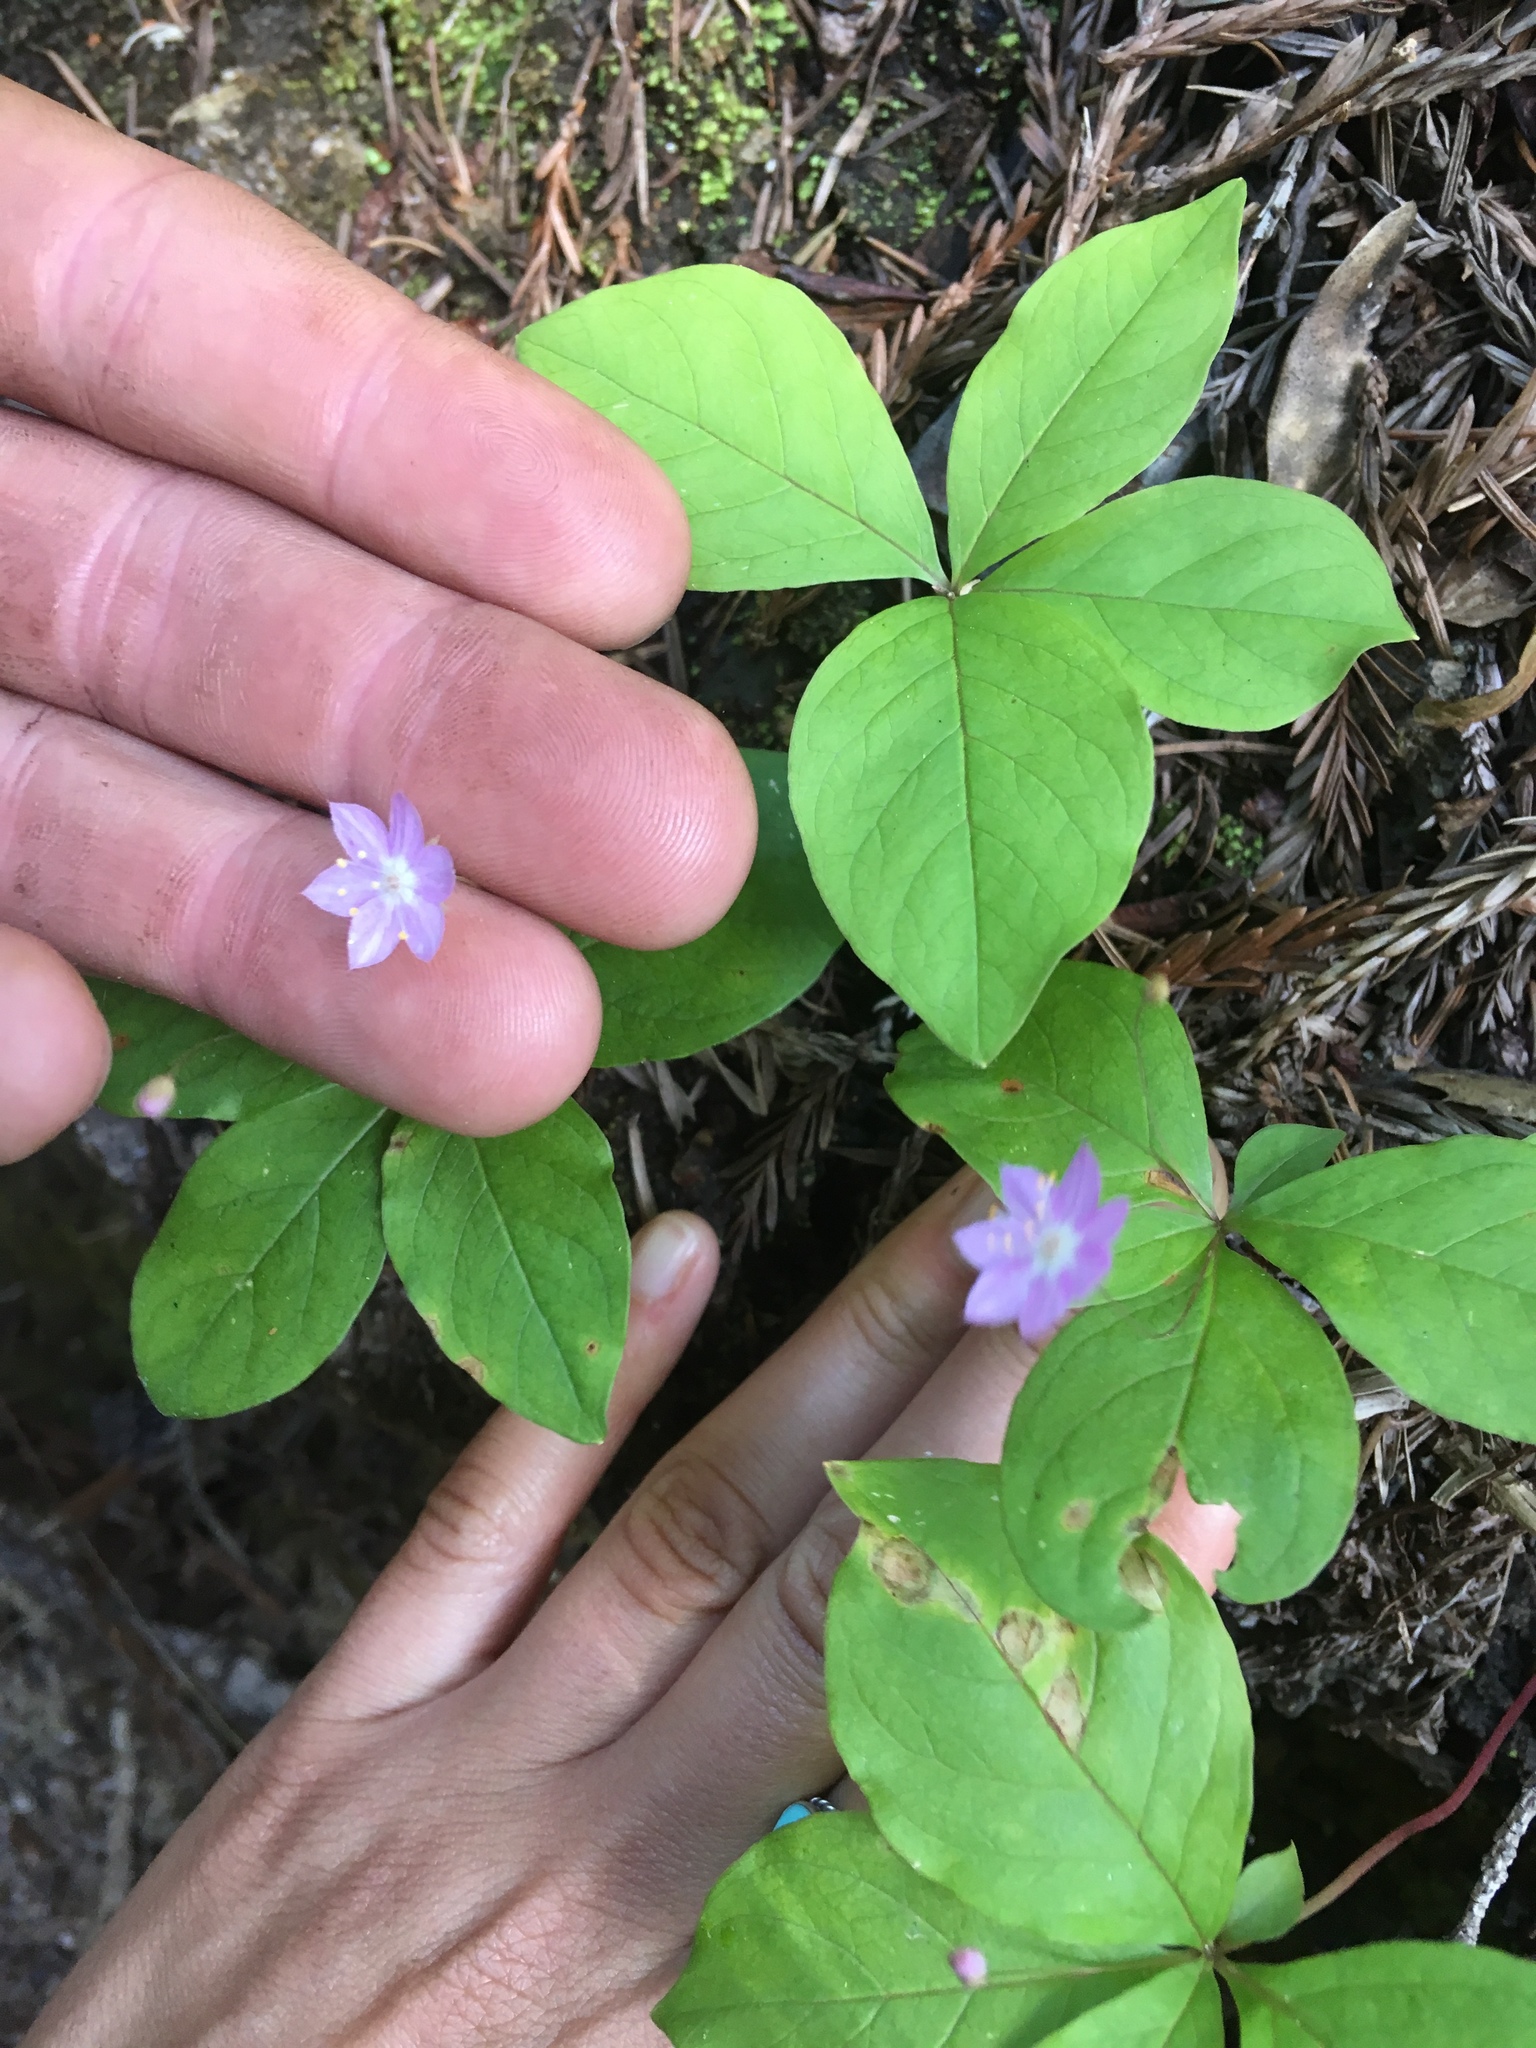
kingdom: Plantae
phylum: Tracheophyta
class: Magnoliopsida
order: Ericales
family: Primulaceae
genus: Lysimachia
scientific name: Lysimachia latifolia
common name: Pacific starflower
